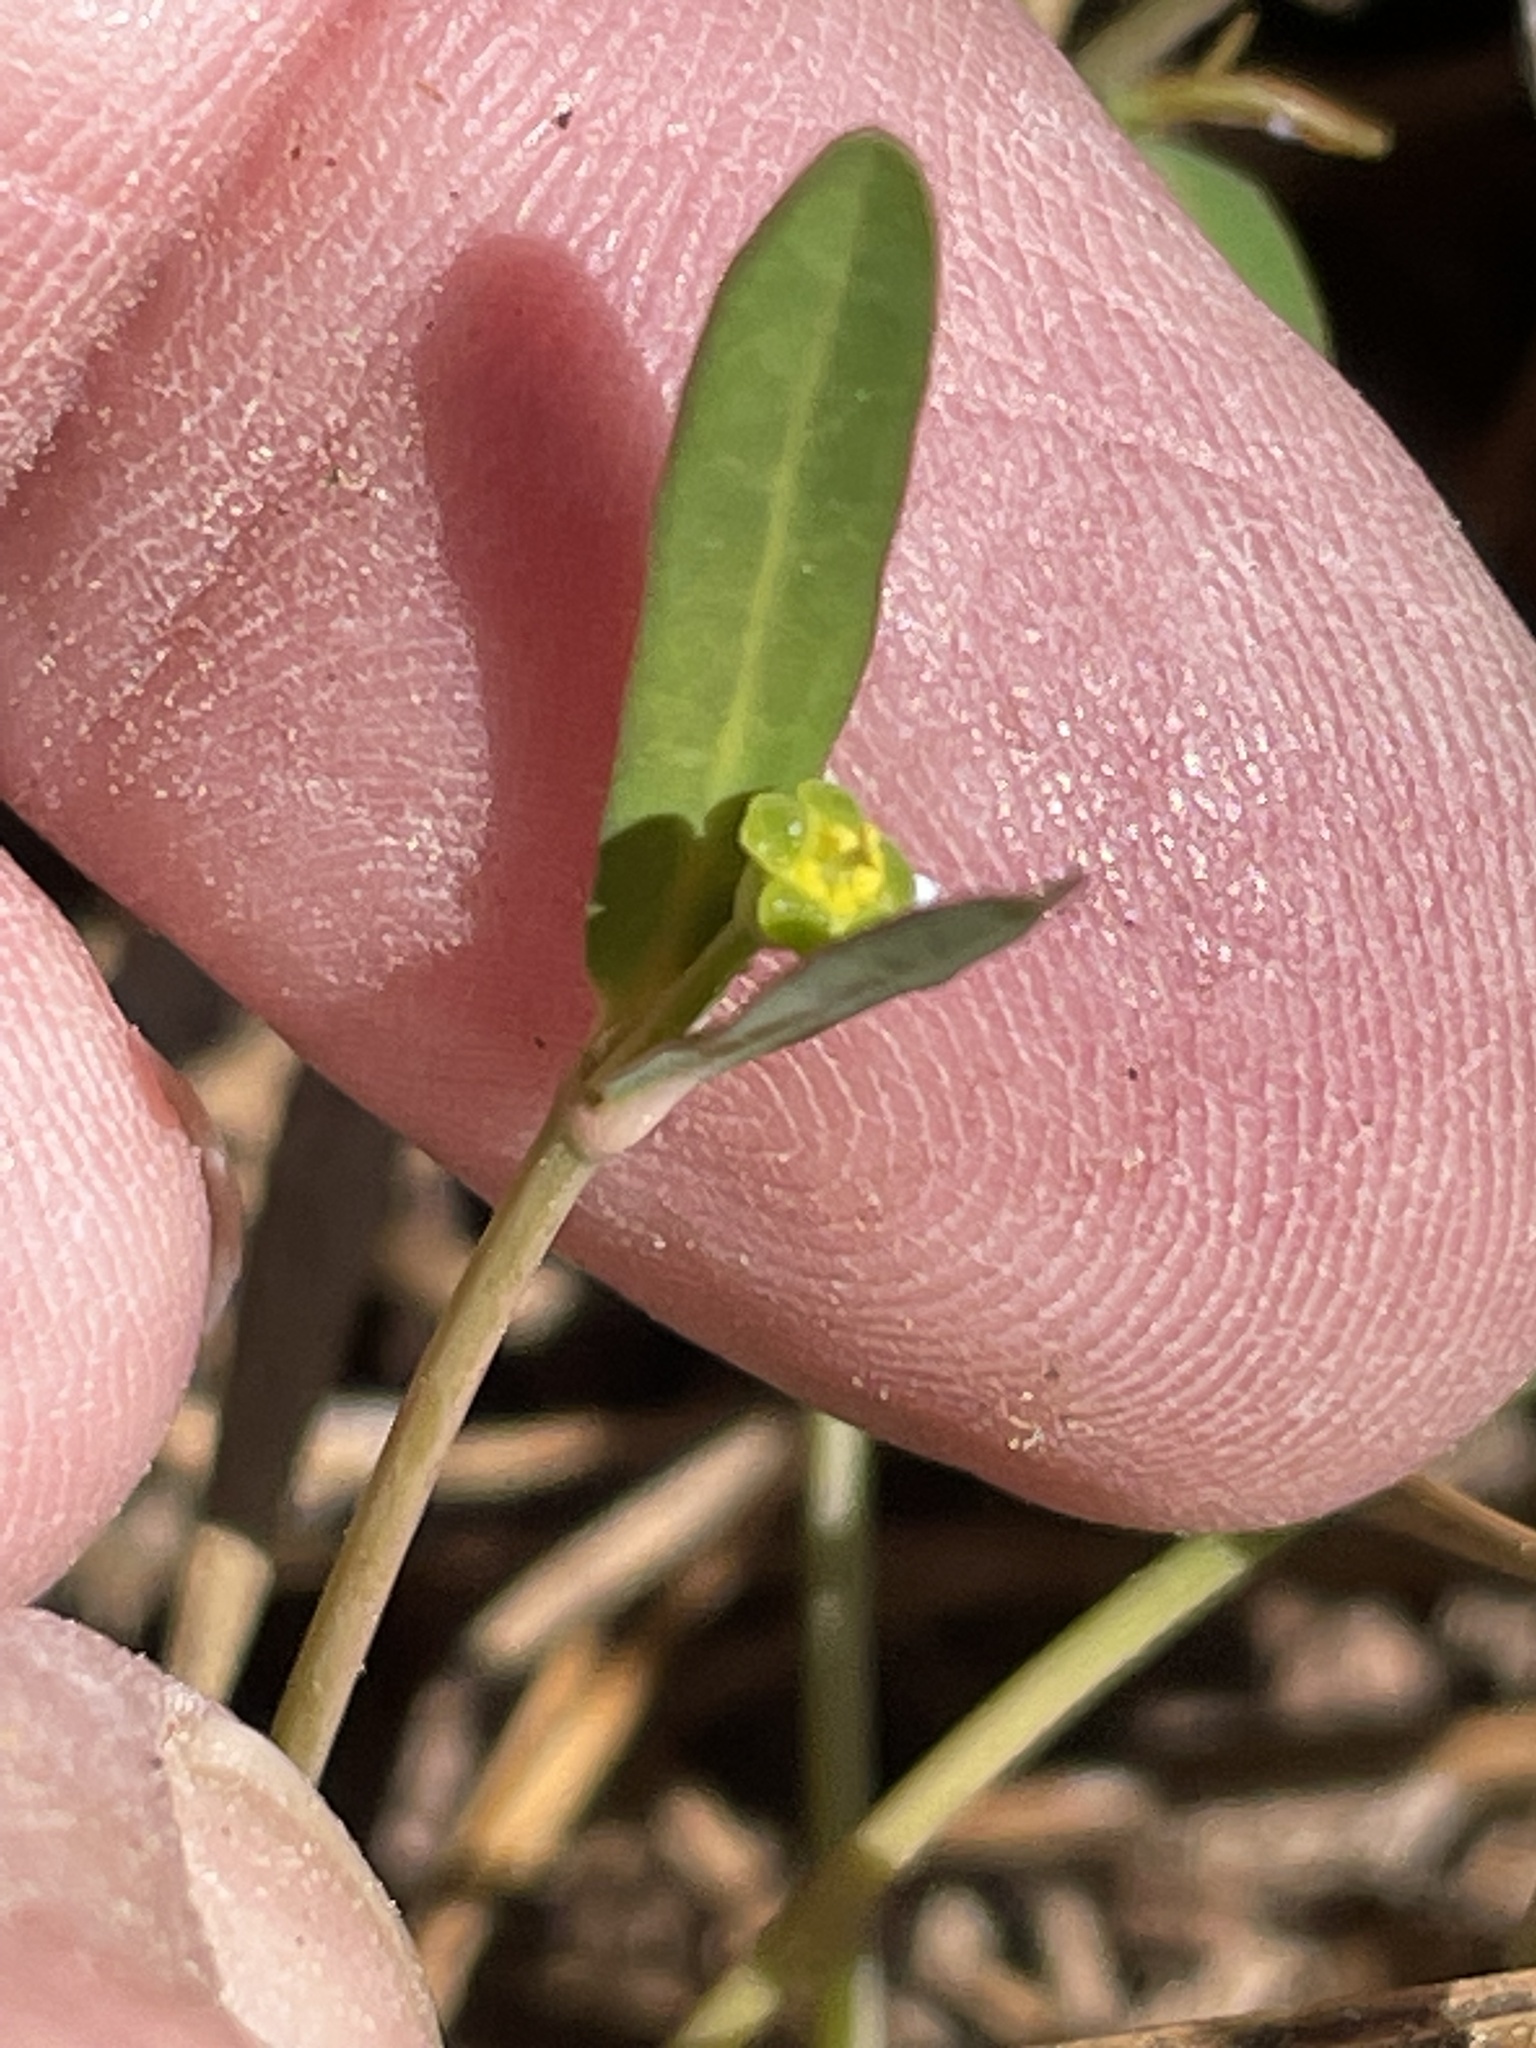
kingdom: Plantae
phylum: Tracheophyta
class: Magnoliopsida
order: Malpighiales
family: Euphorbiaceae
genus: Euphorbia
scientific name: Euphorbia ipecacuanhae
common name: Carolina ipecac
